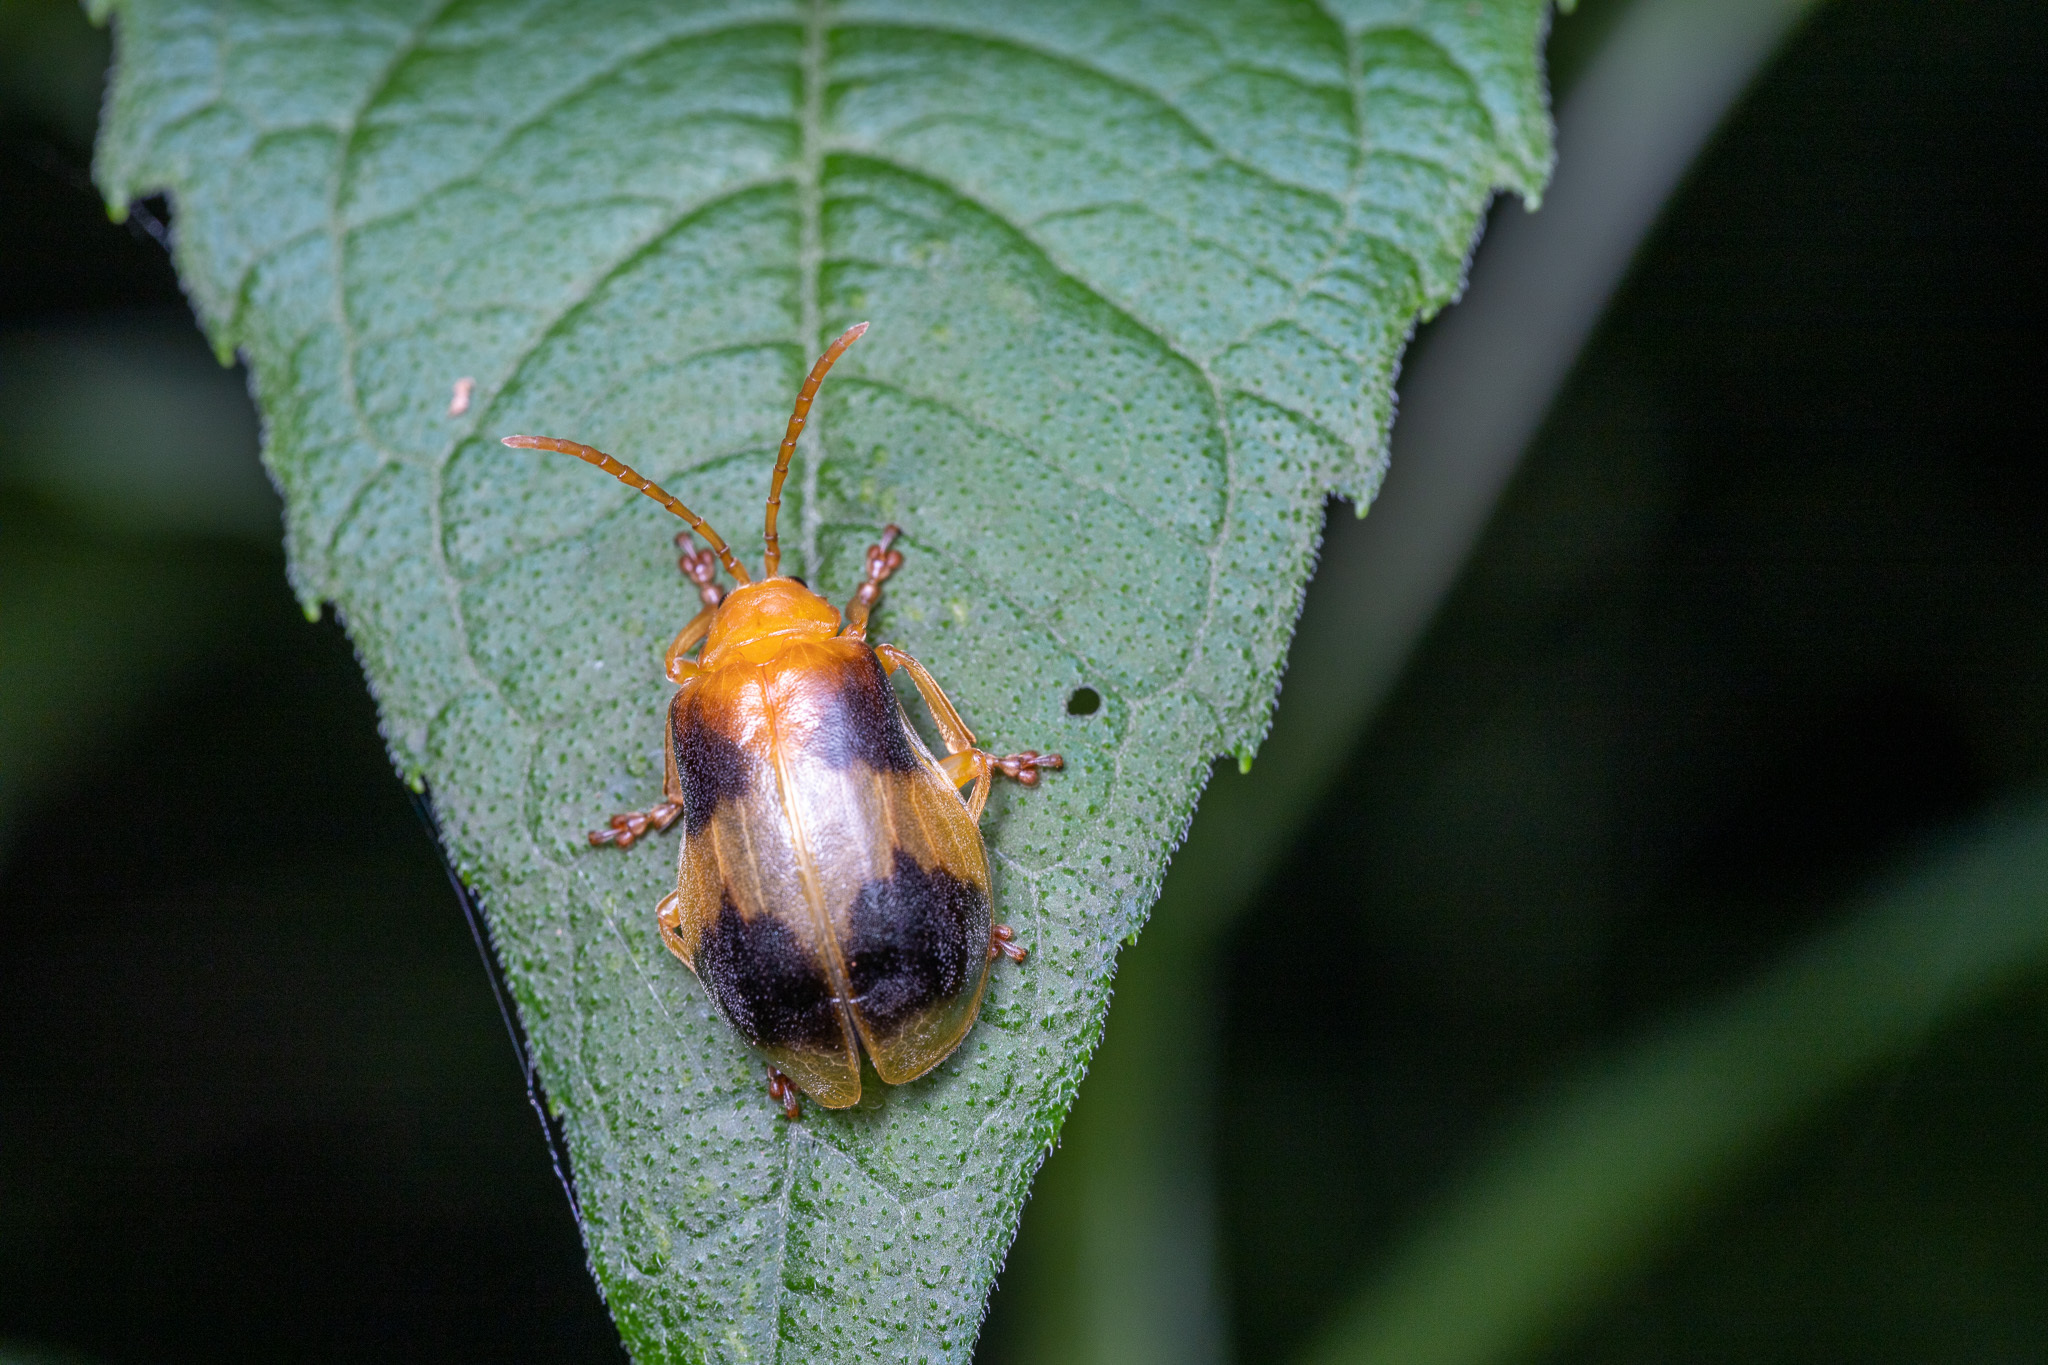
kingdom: Animalia
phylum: Arthropoda
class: Insecta
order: Coleoptera
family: Chrysomelidae
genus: Monocesta
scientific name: Monocesta coryli
